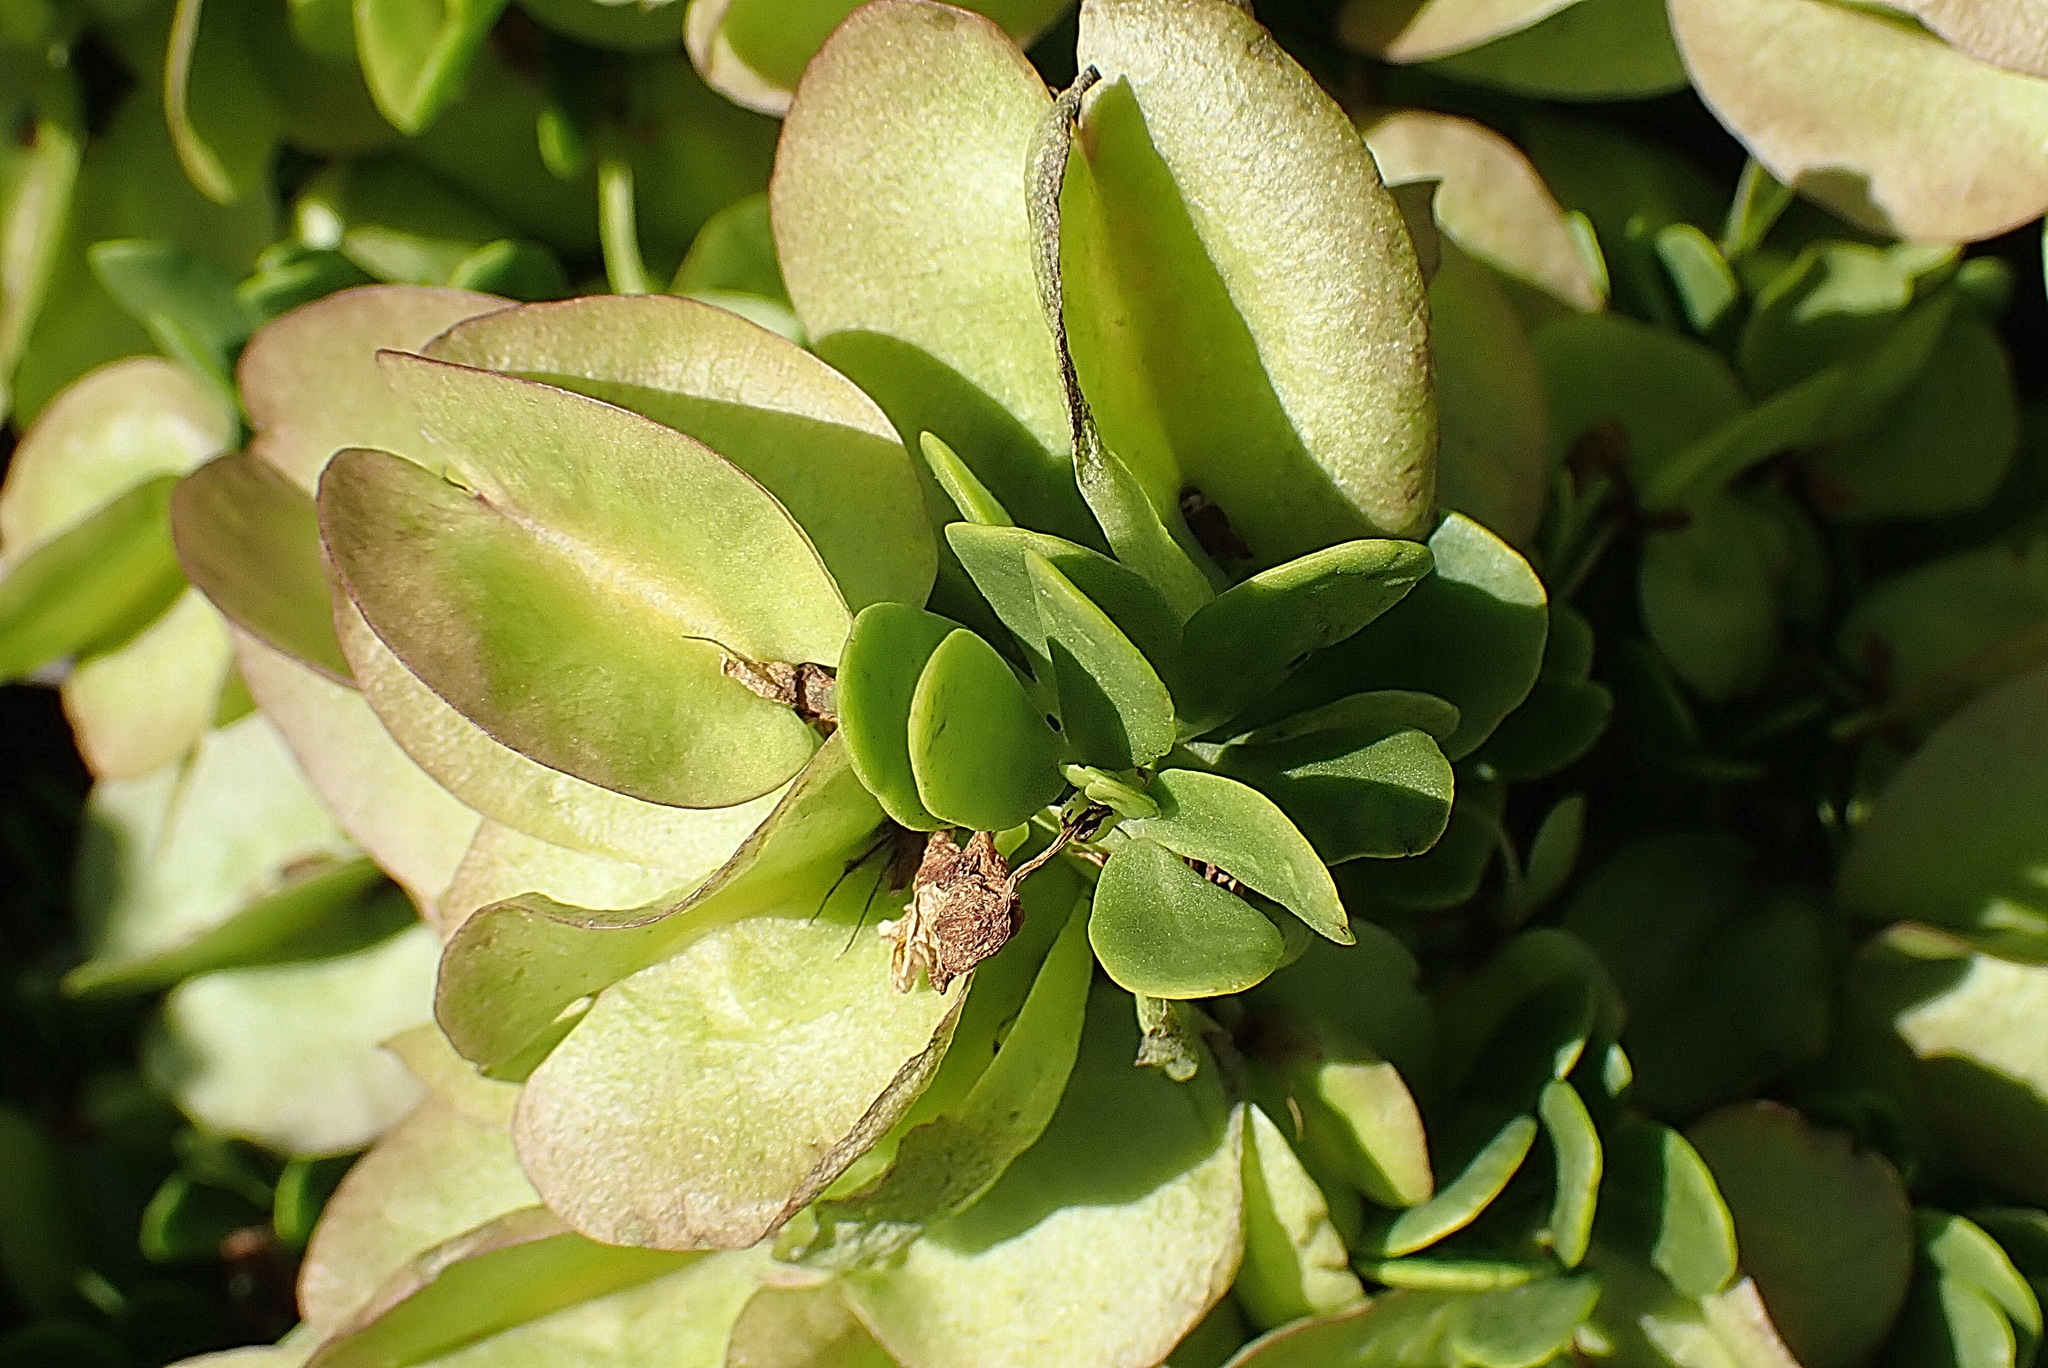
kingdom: Plantae
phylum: Tracheophyta
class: Magnoliopsida
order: Zygophyllales
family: Zygophyllaceae
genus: Roepera
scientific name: Roepera morgsana
